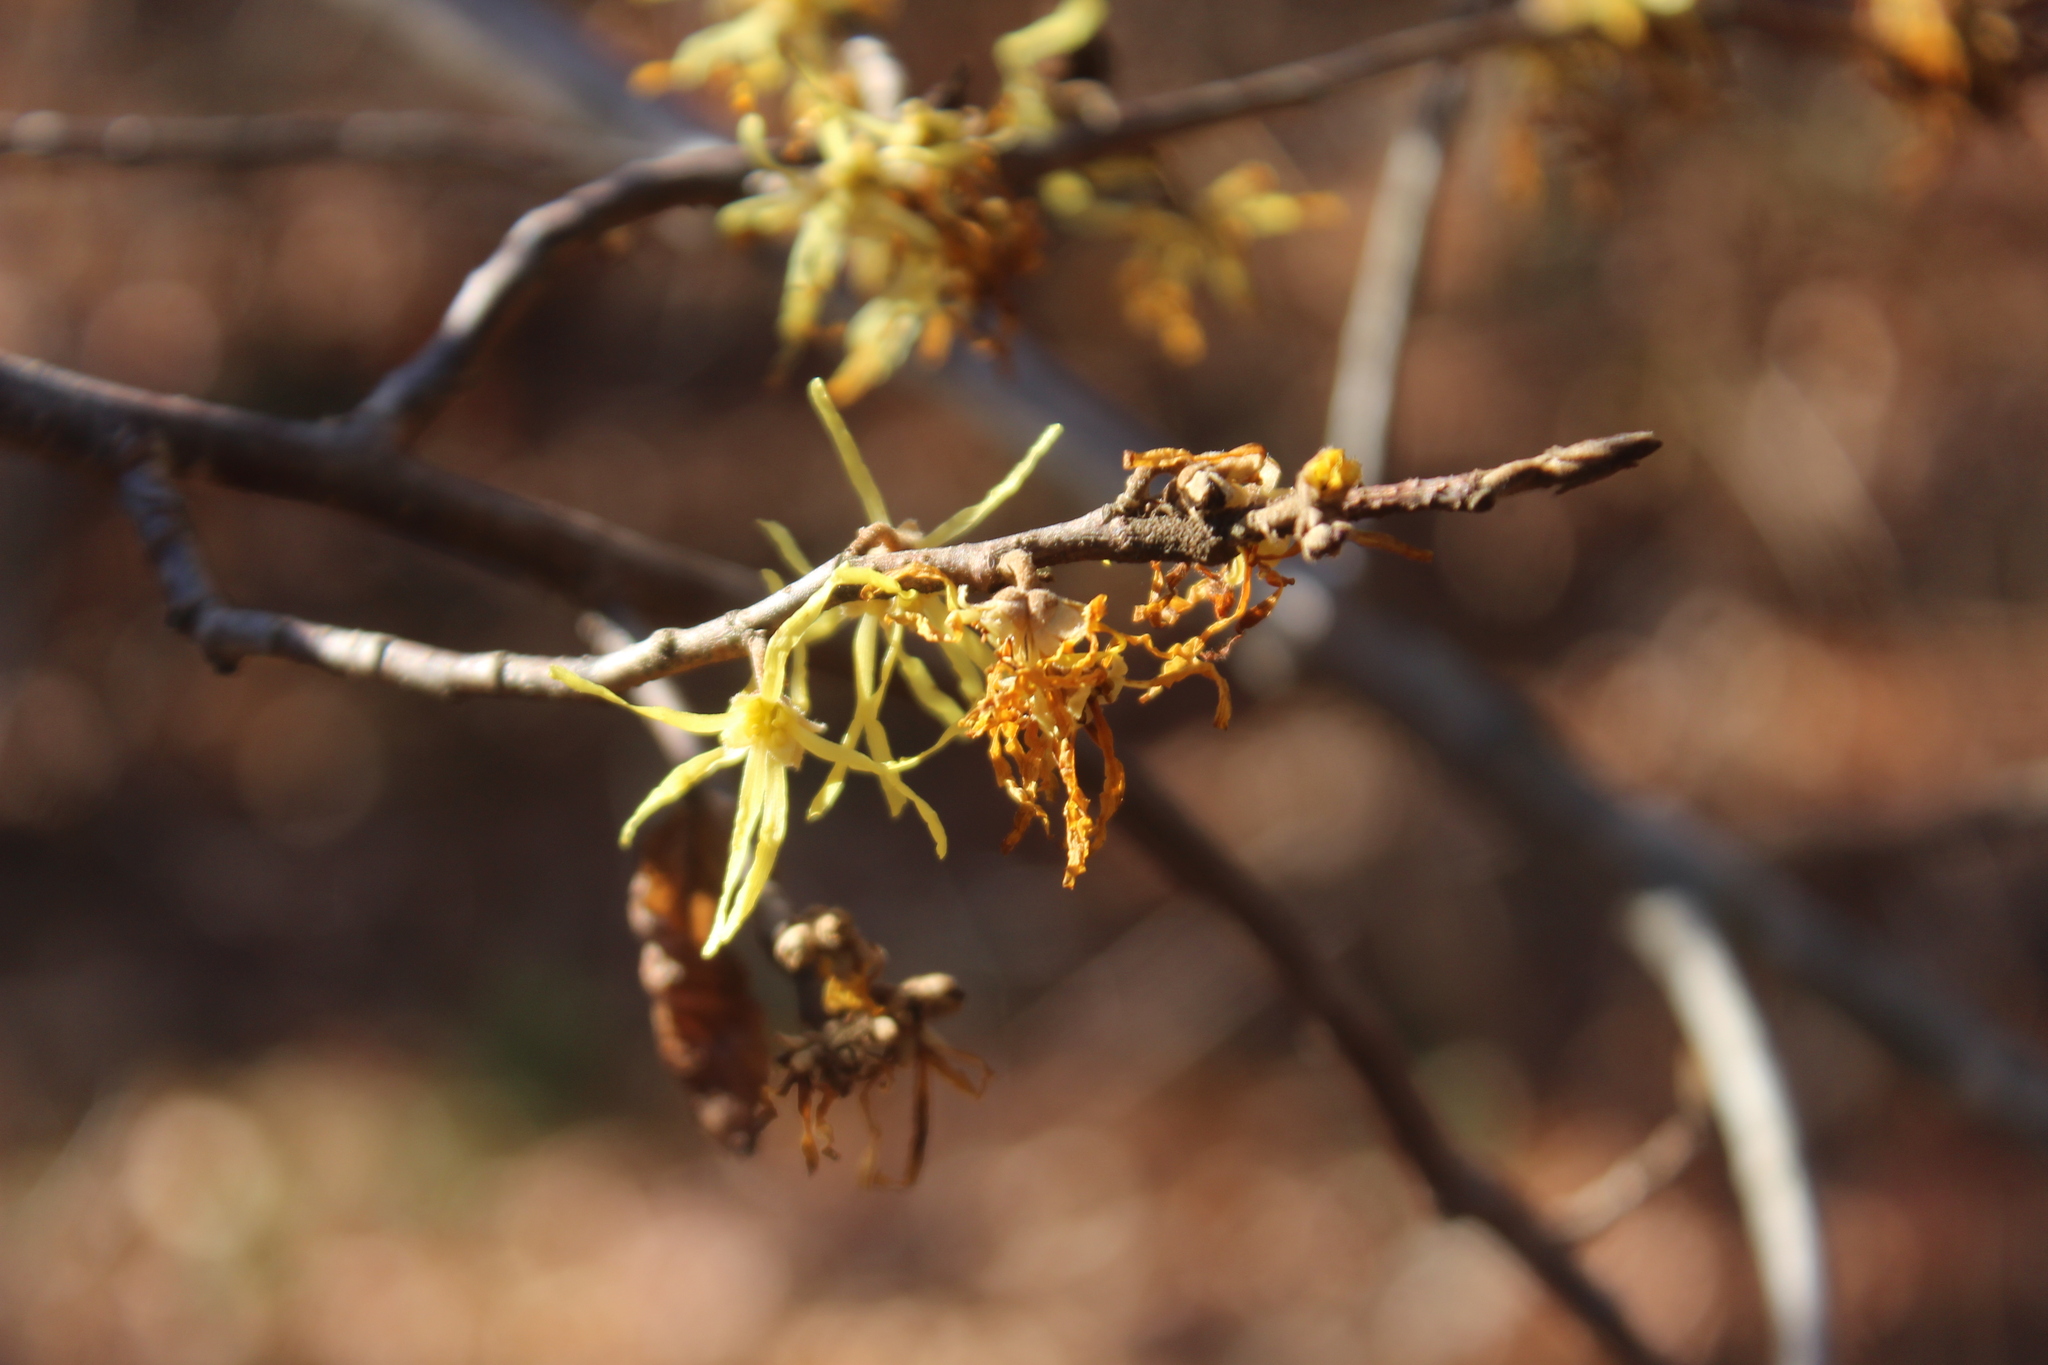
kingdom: Plantae
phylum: Tracheophyta
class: Magnoliopsida
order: Saxifragales
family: Hamamelidaceae
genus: Hamamelis
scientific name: Hamamelis virginiana
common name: Witch-hazel
